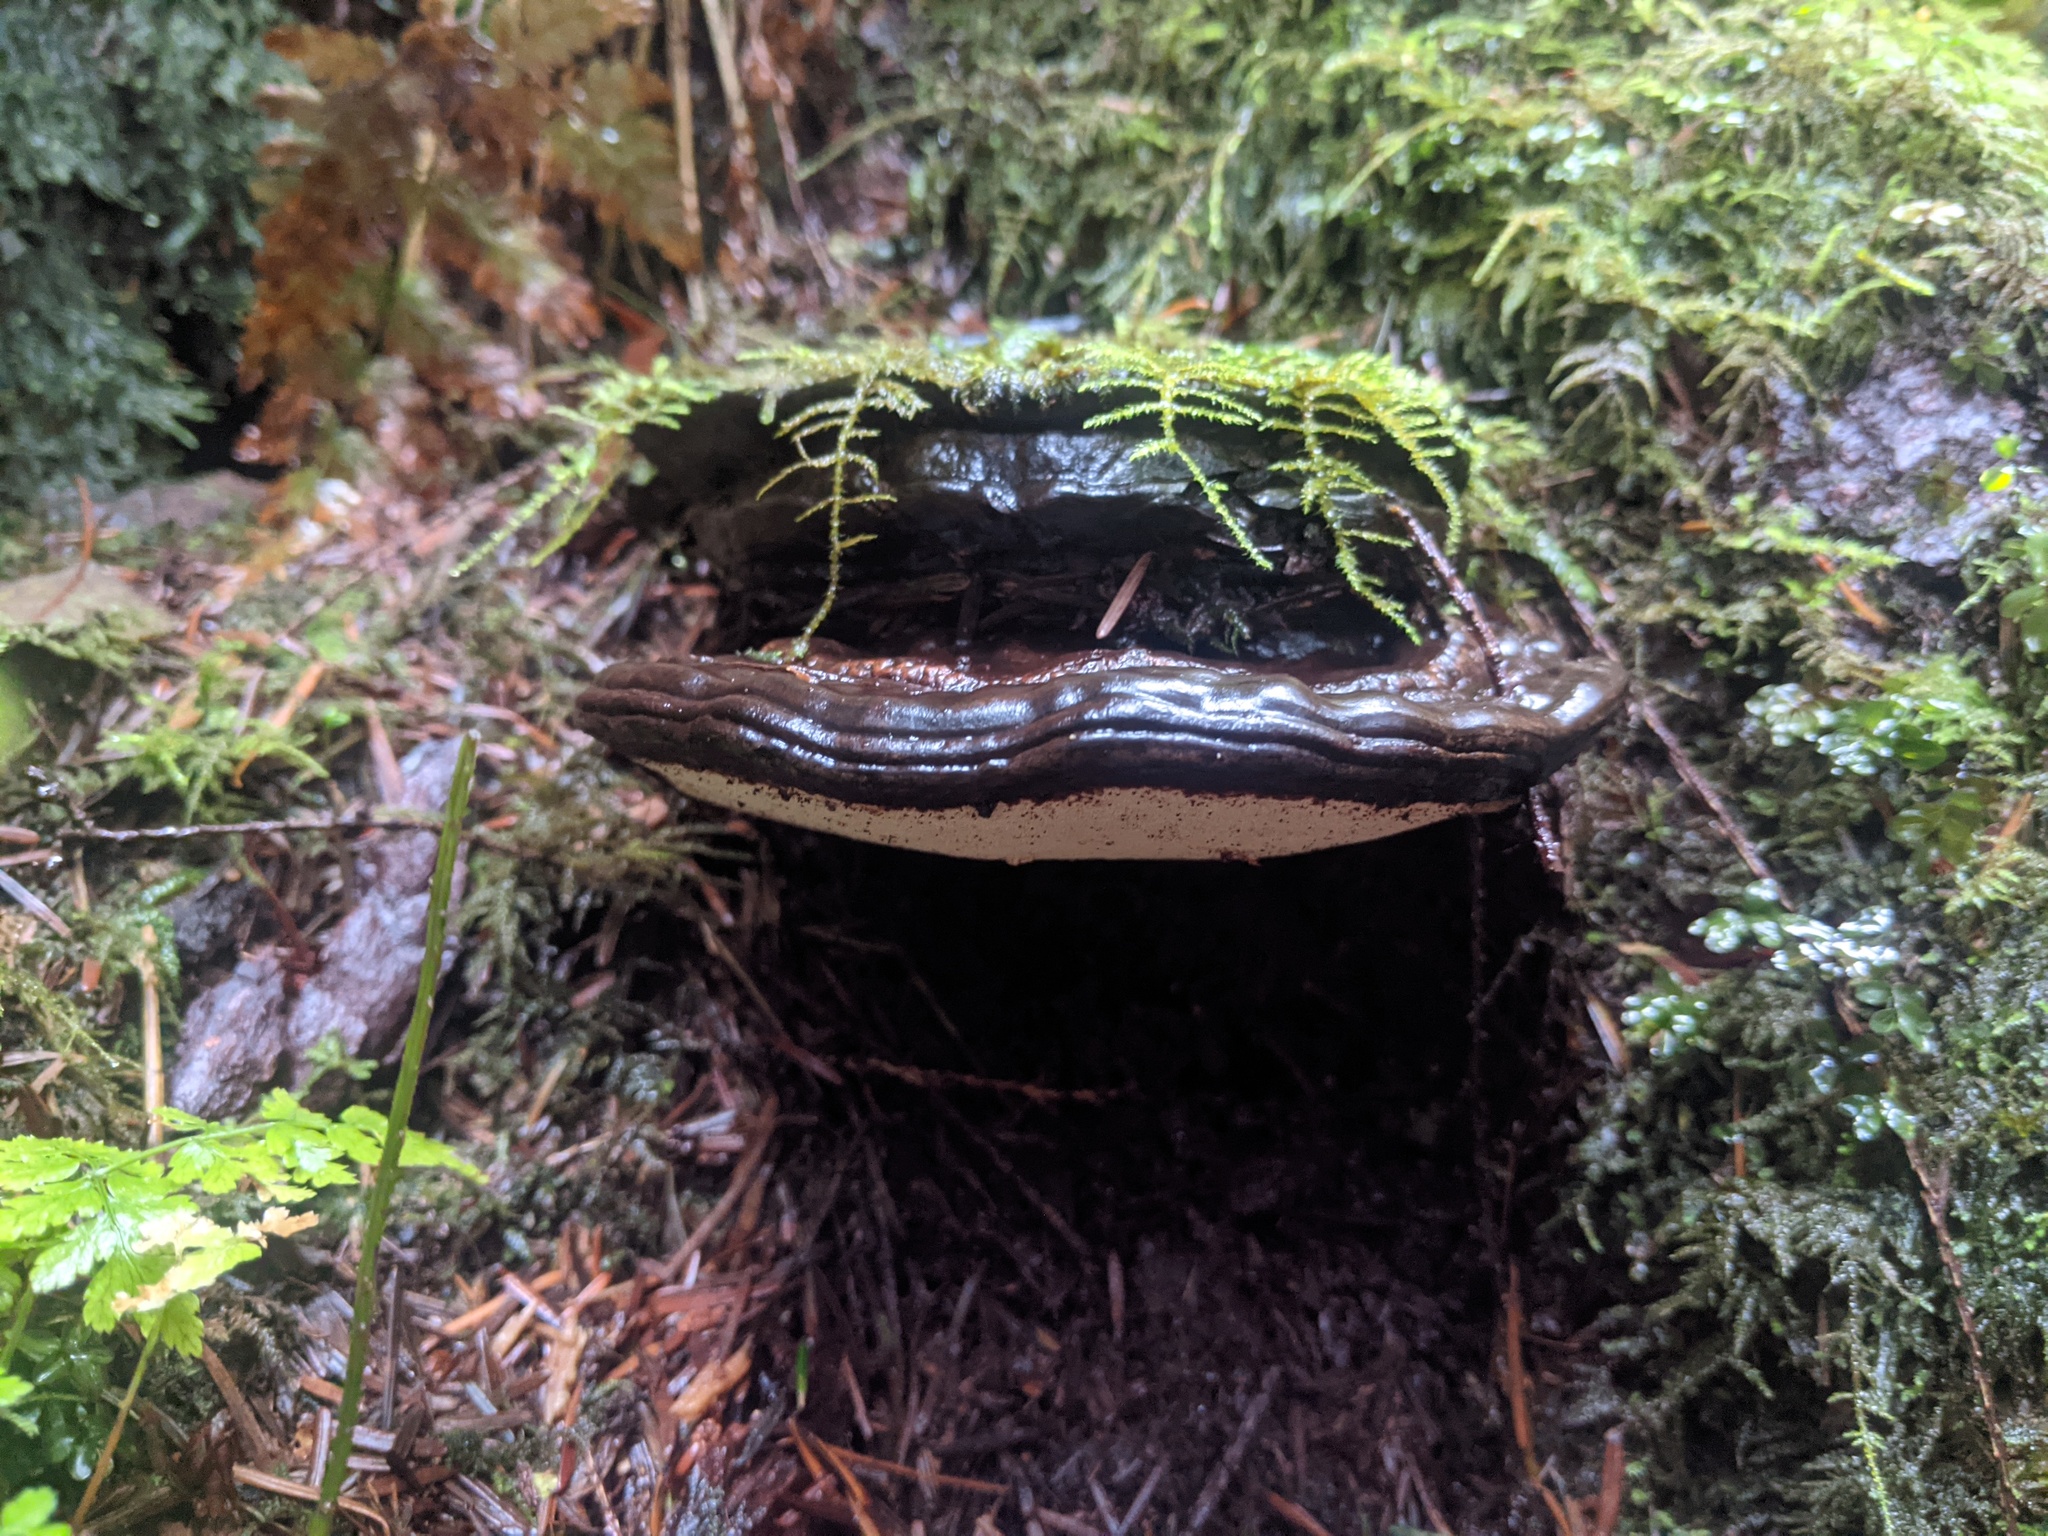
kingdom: Fungi
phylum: Basidiomycota
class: Agaricomycetes
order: Polyporales
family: Polyporaceae
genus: Ganoderma
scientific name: Ganoderma oregonense
